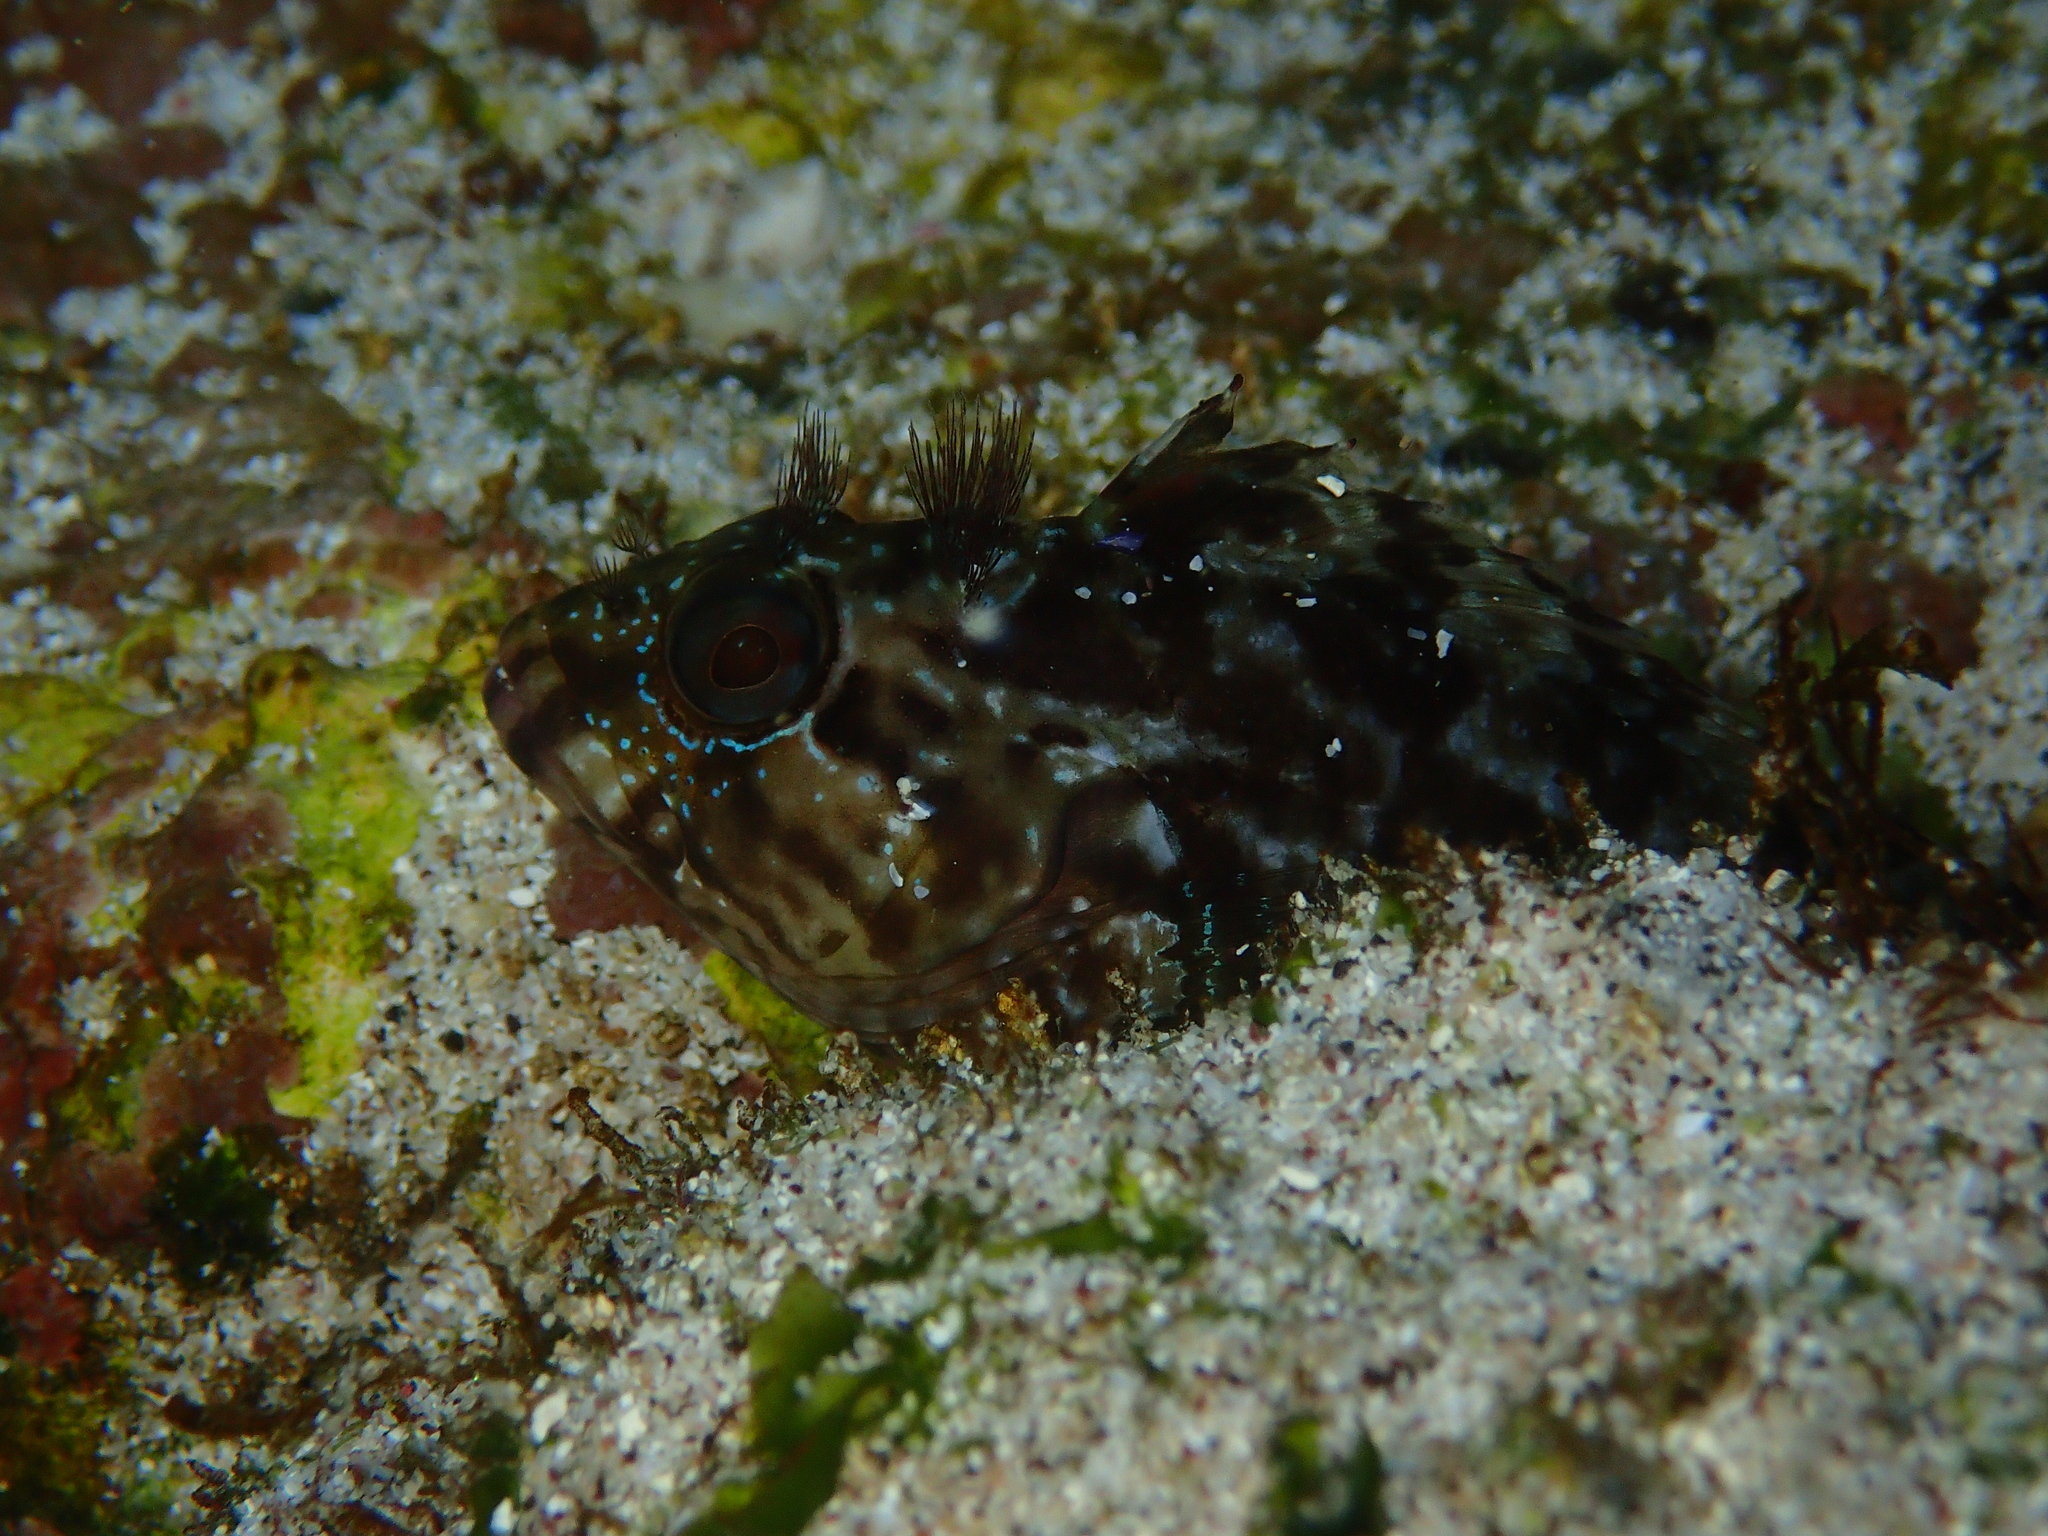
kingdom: Animalia
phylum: Chordata
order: Perciformes
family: Labrisomidae
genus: Labrisomus
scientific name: Labrisomus jenkinsi
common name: Jenkins' blenny
